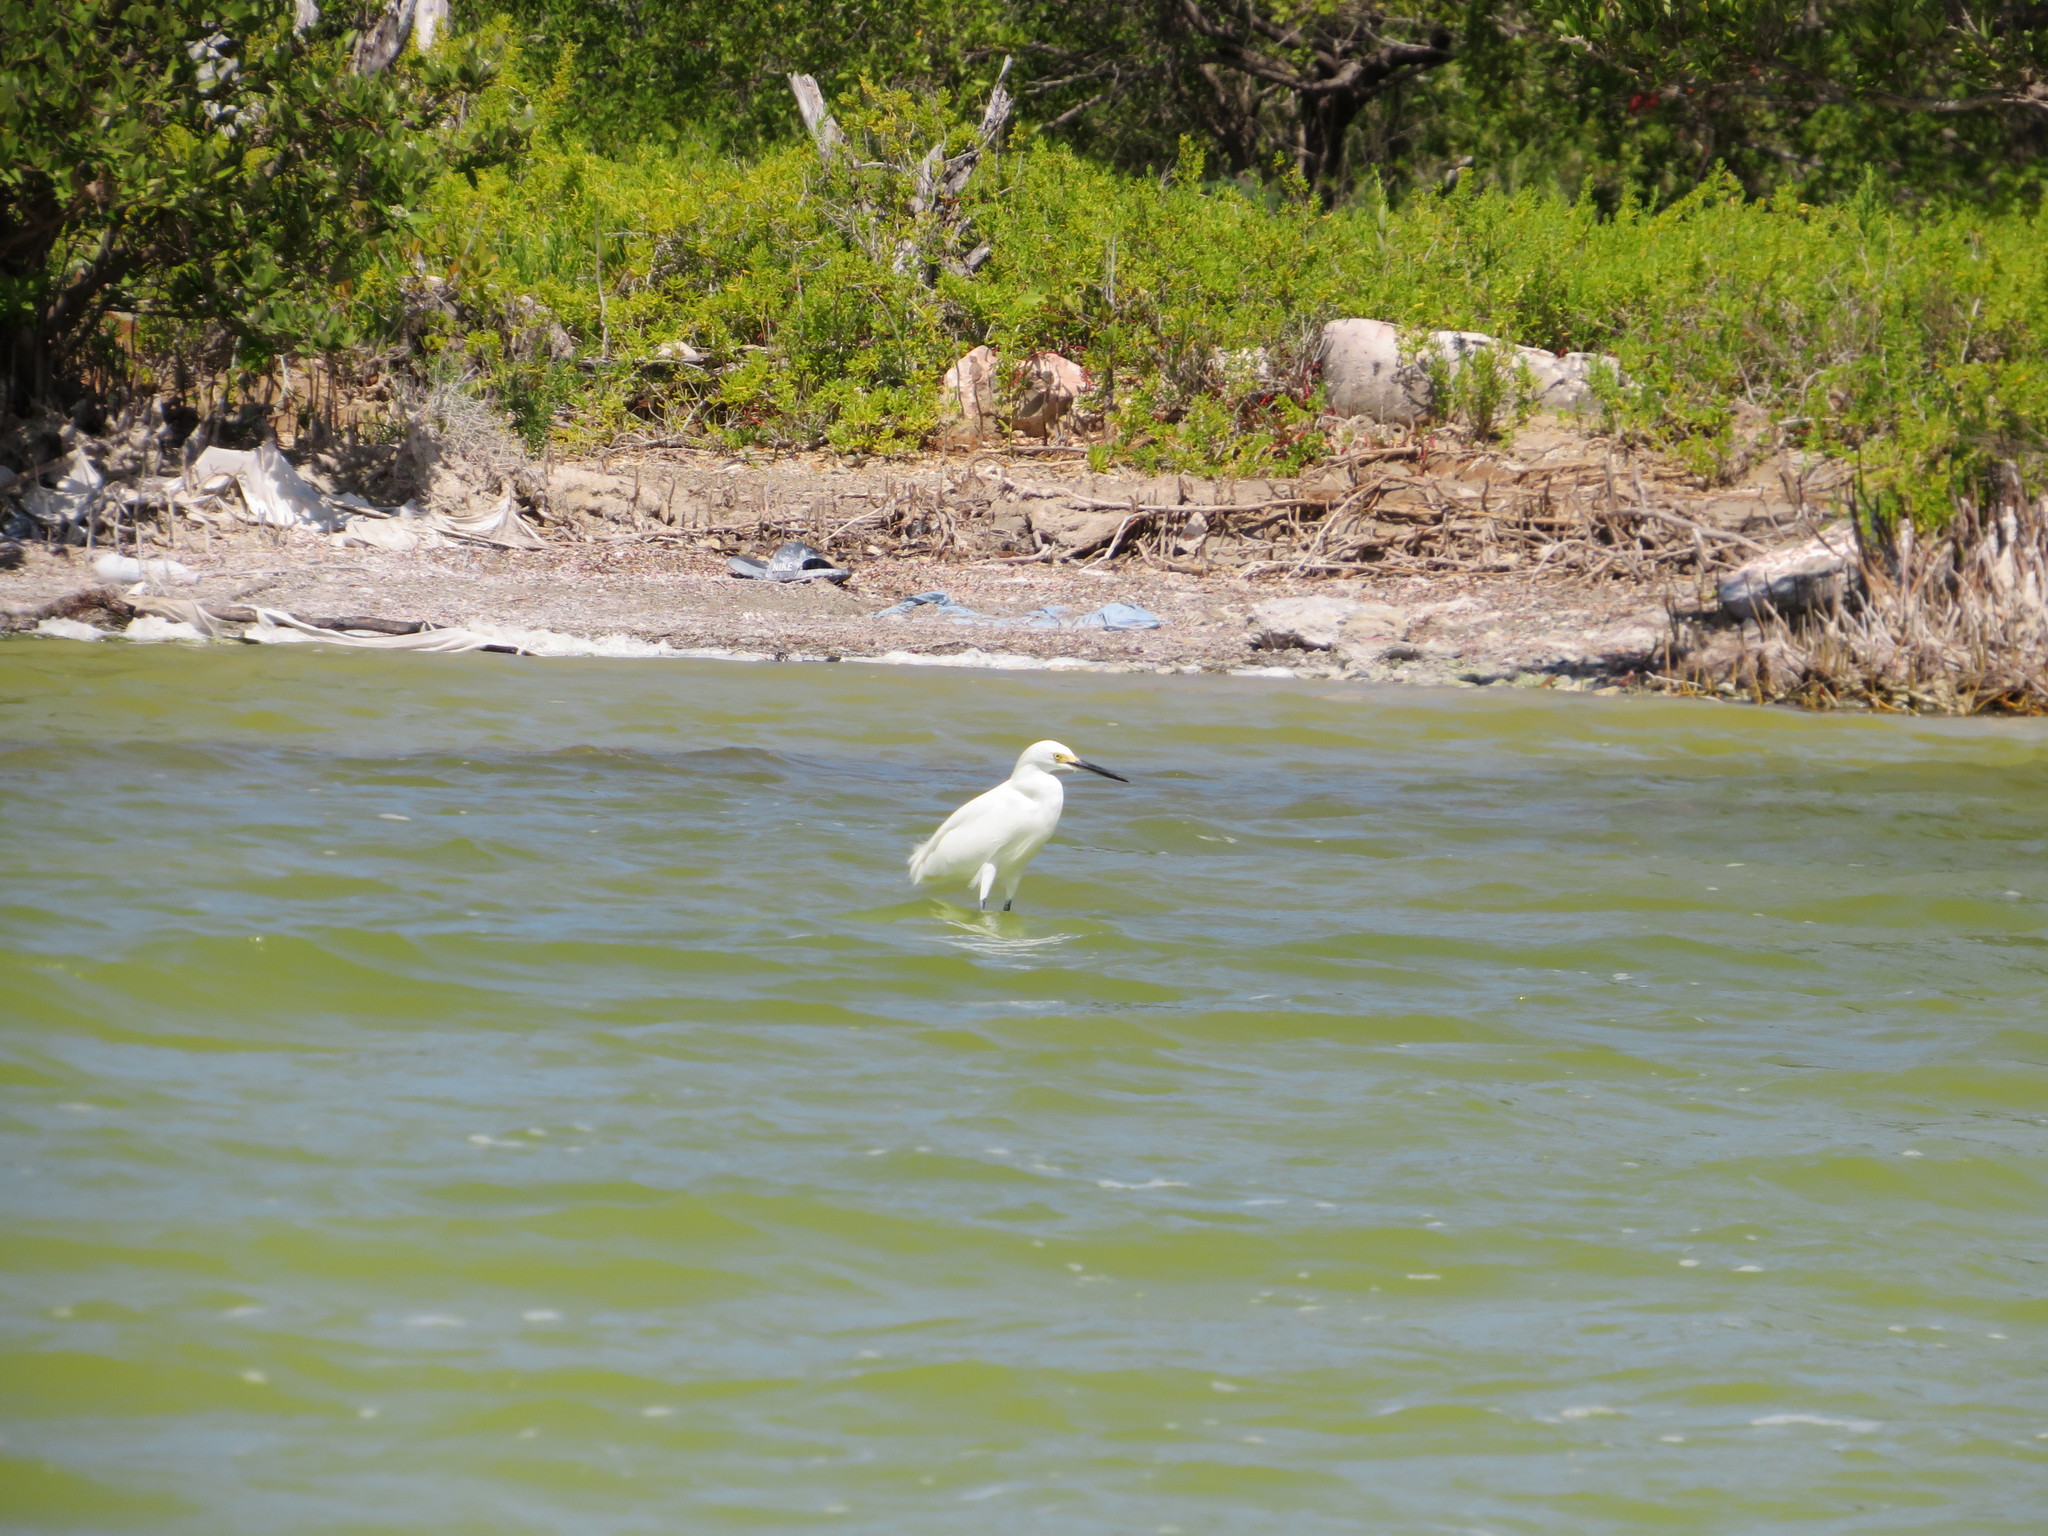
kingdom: Animalia
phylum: Chordata
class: Aves
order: Pelecaniformes
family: Ardeidae
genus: Egretta
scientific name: Egretta thula
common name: Snowy egret
